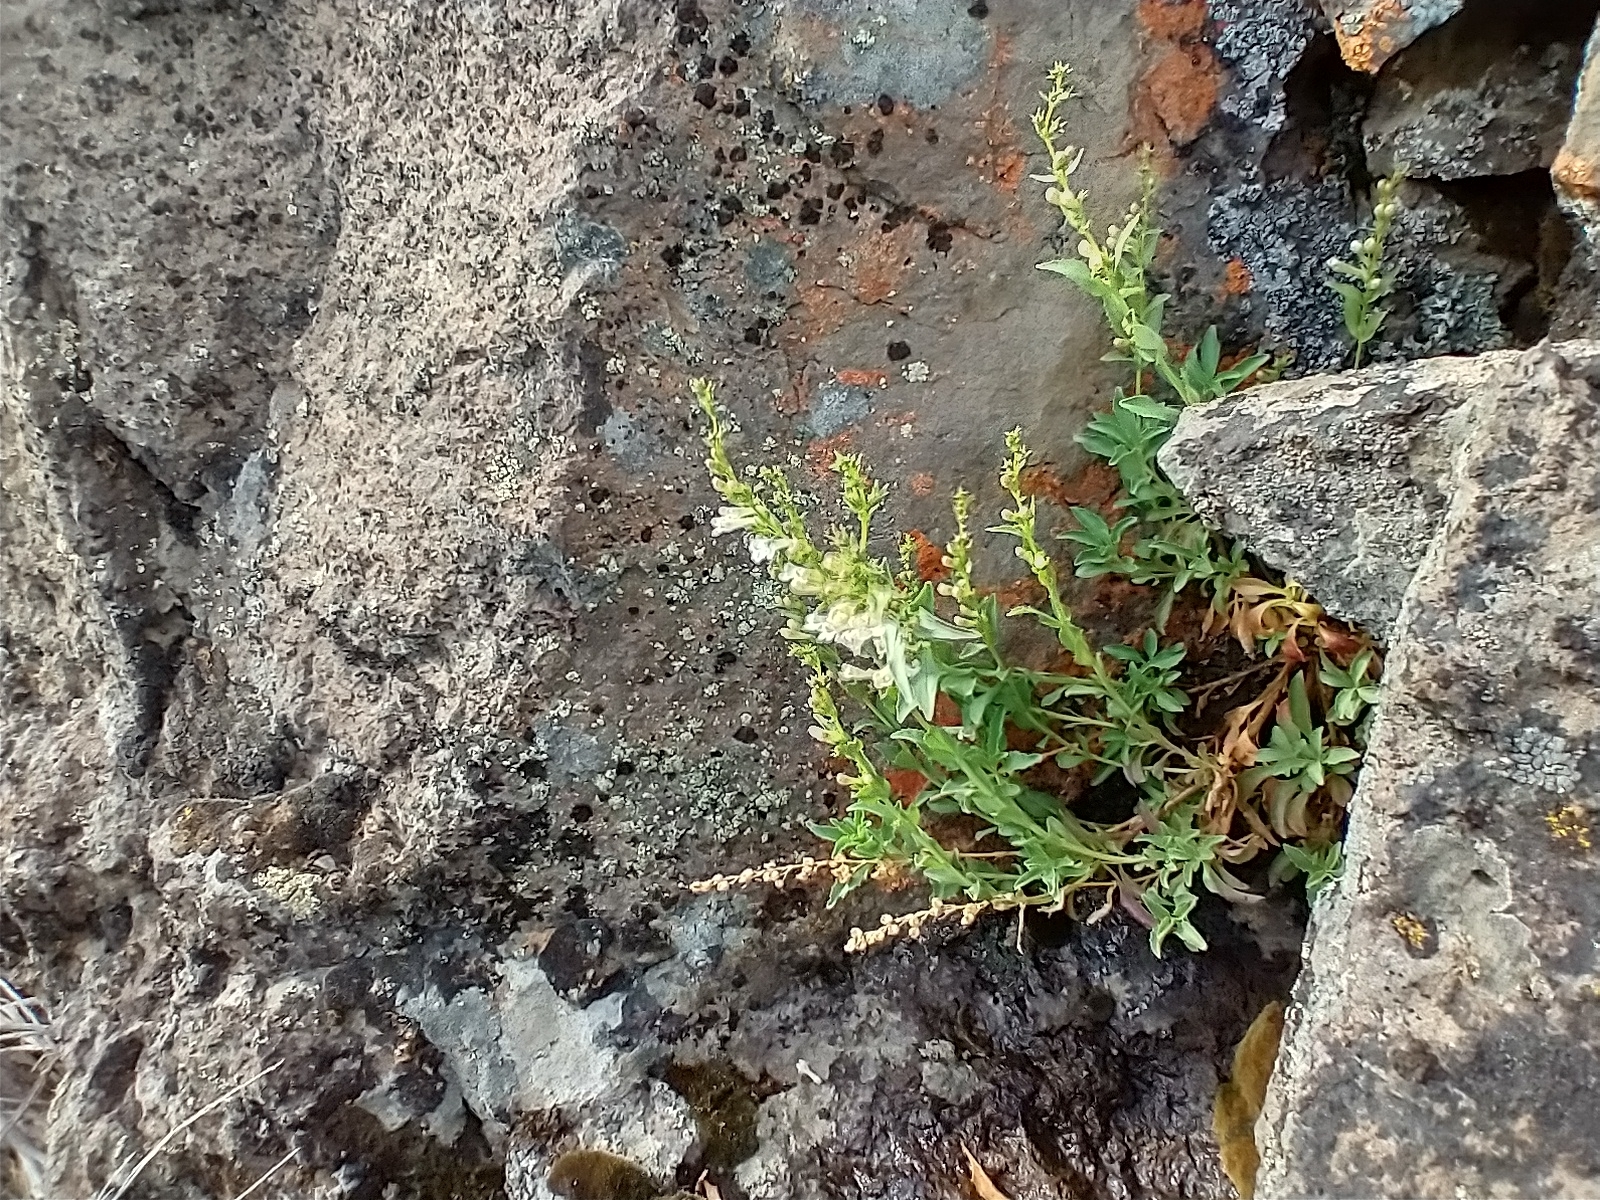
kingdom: Plantae
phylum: Tracheophyta
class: Magnoliopsida
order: Lamiales
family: Plantaginaceae
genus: Penstemon
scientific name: Penstemon deustus
